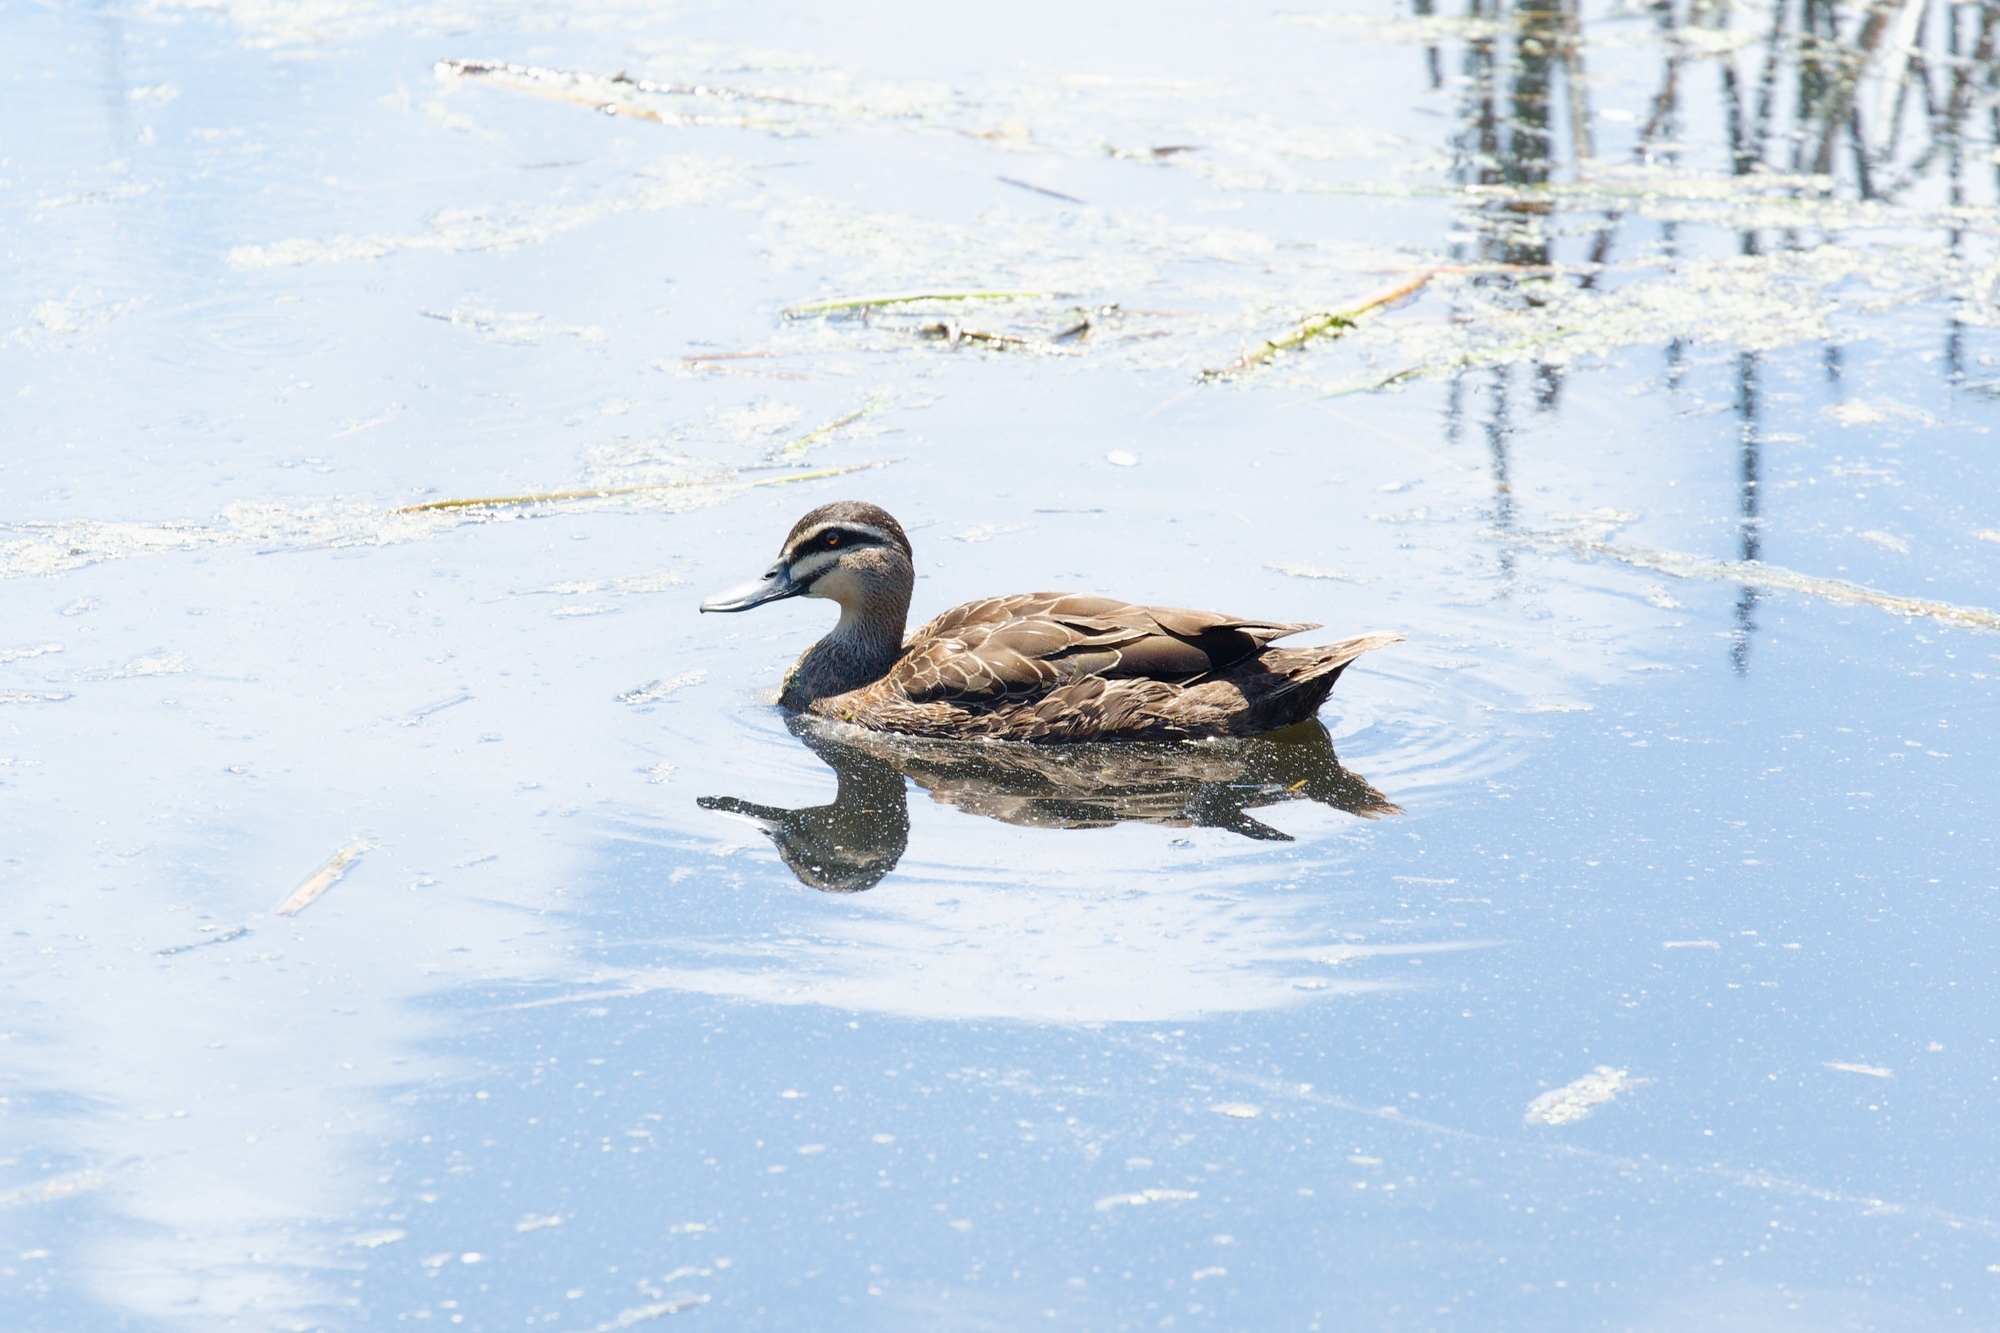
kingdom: Animalia
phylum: Chordata
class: Aves
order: Anseriformes
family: Anatidae
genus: Anas
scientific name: Anas superciliosa
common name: Pacific black duck
